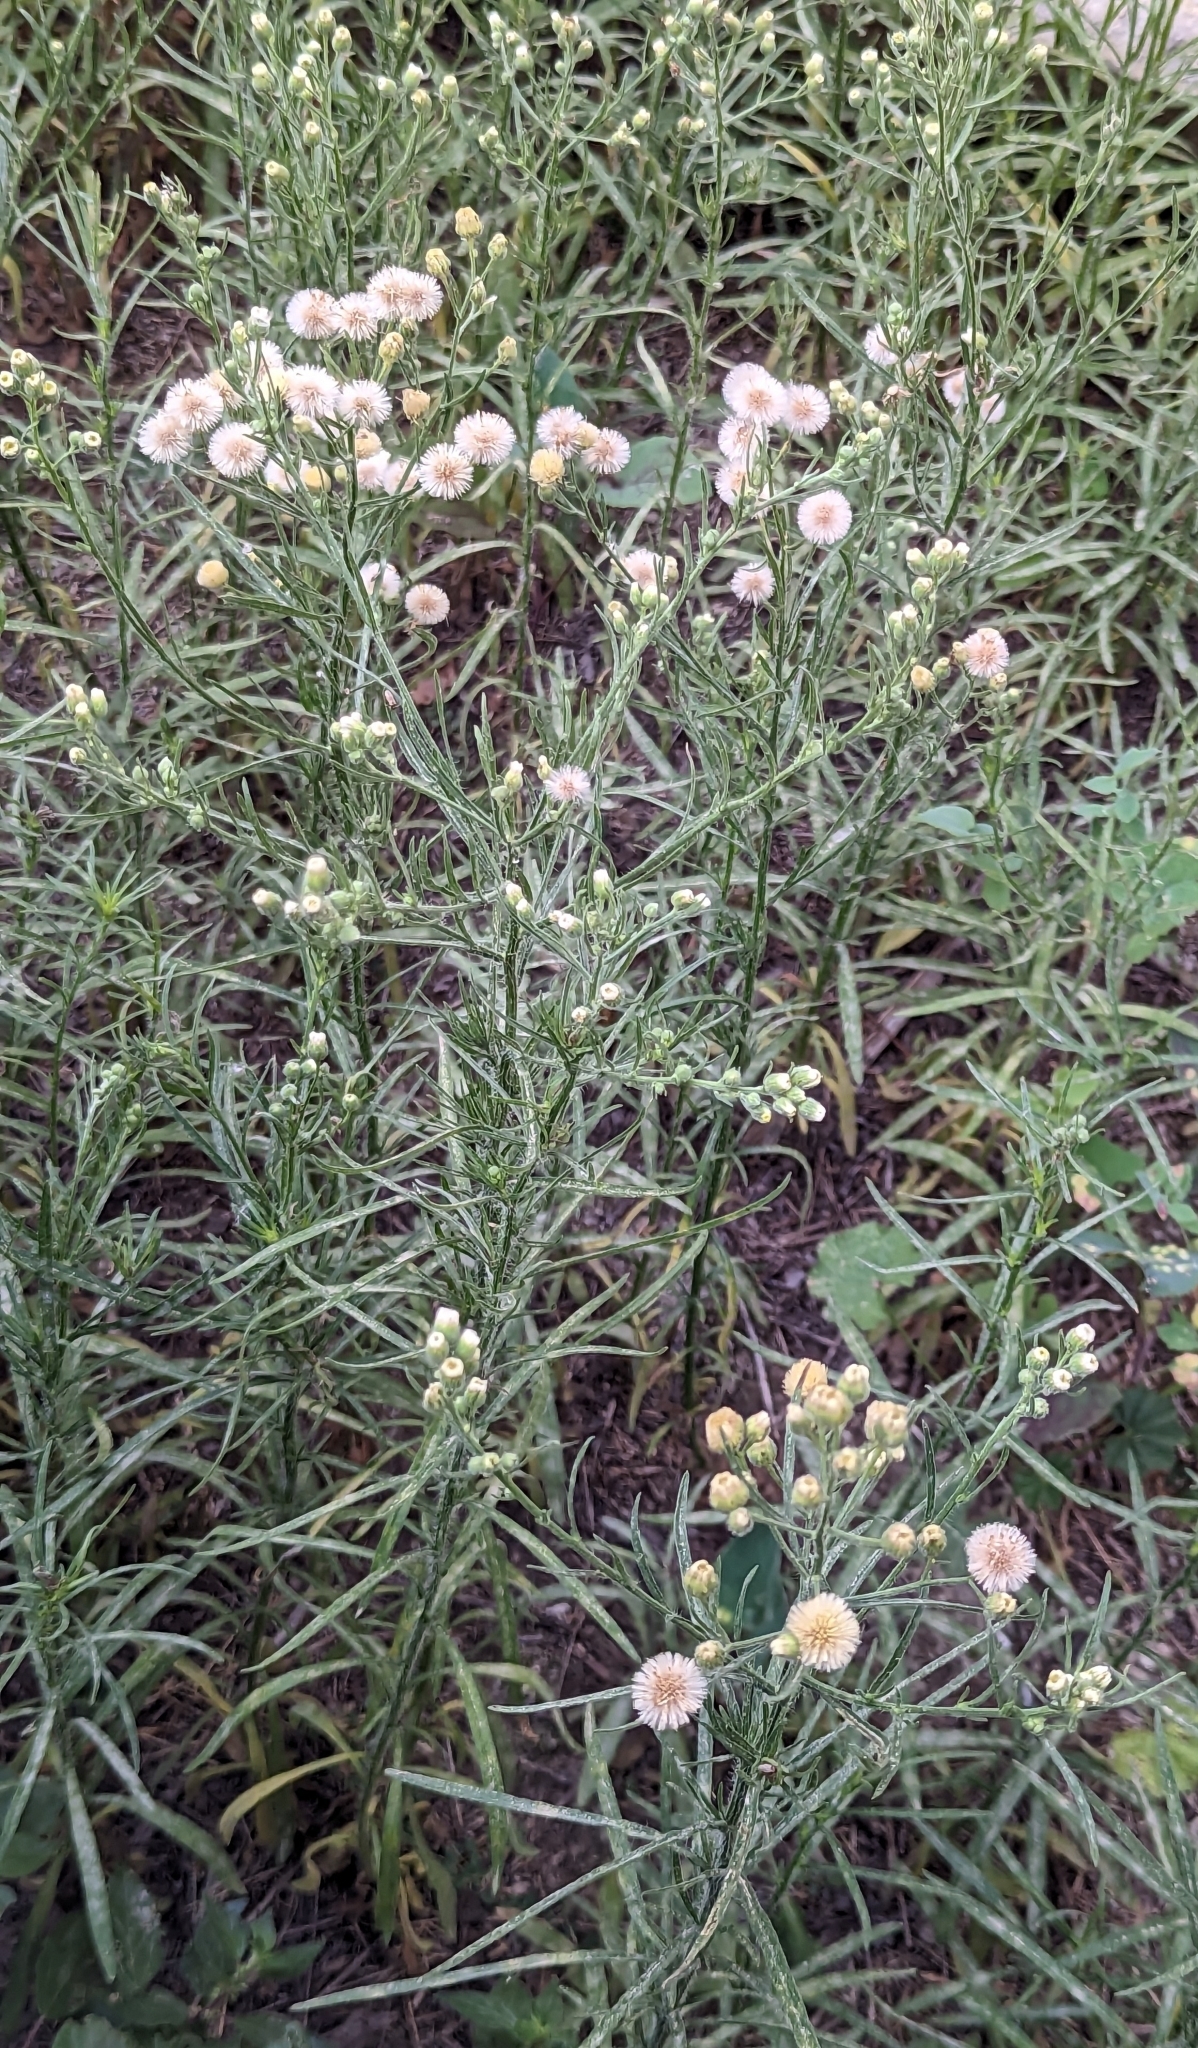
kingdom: Plantae
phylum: Tracheophyta
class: Magnoliopsida
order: Asterales
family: Asteraceae
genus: Erigeron
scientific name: Erigeron bonariensis
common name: Argentine fleabane
